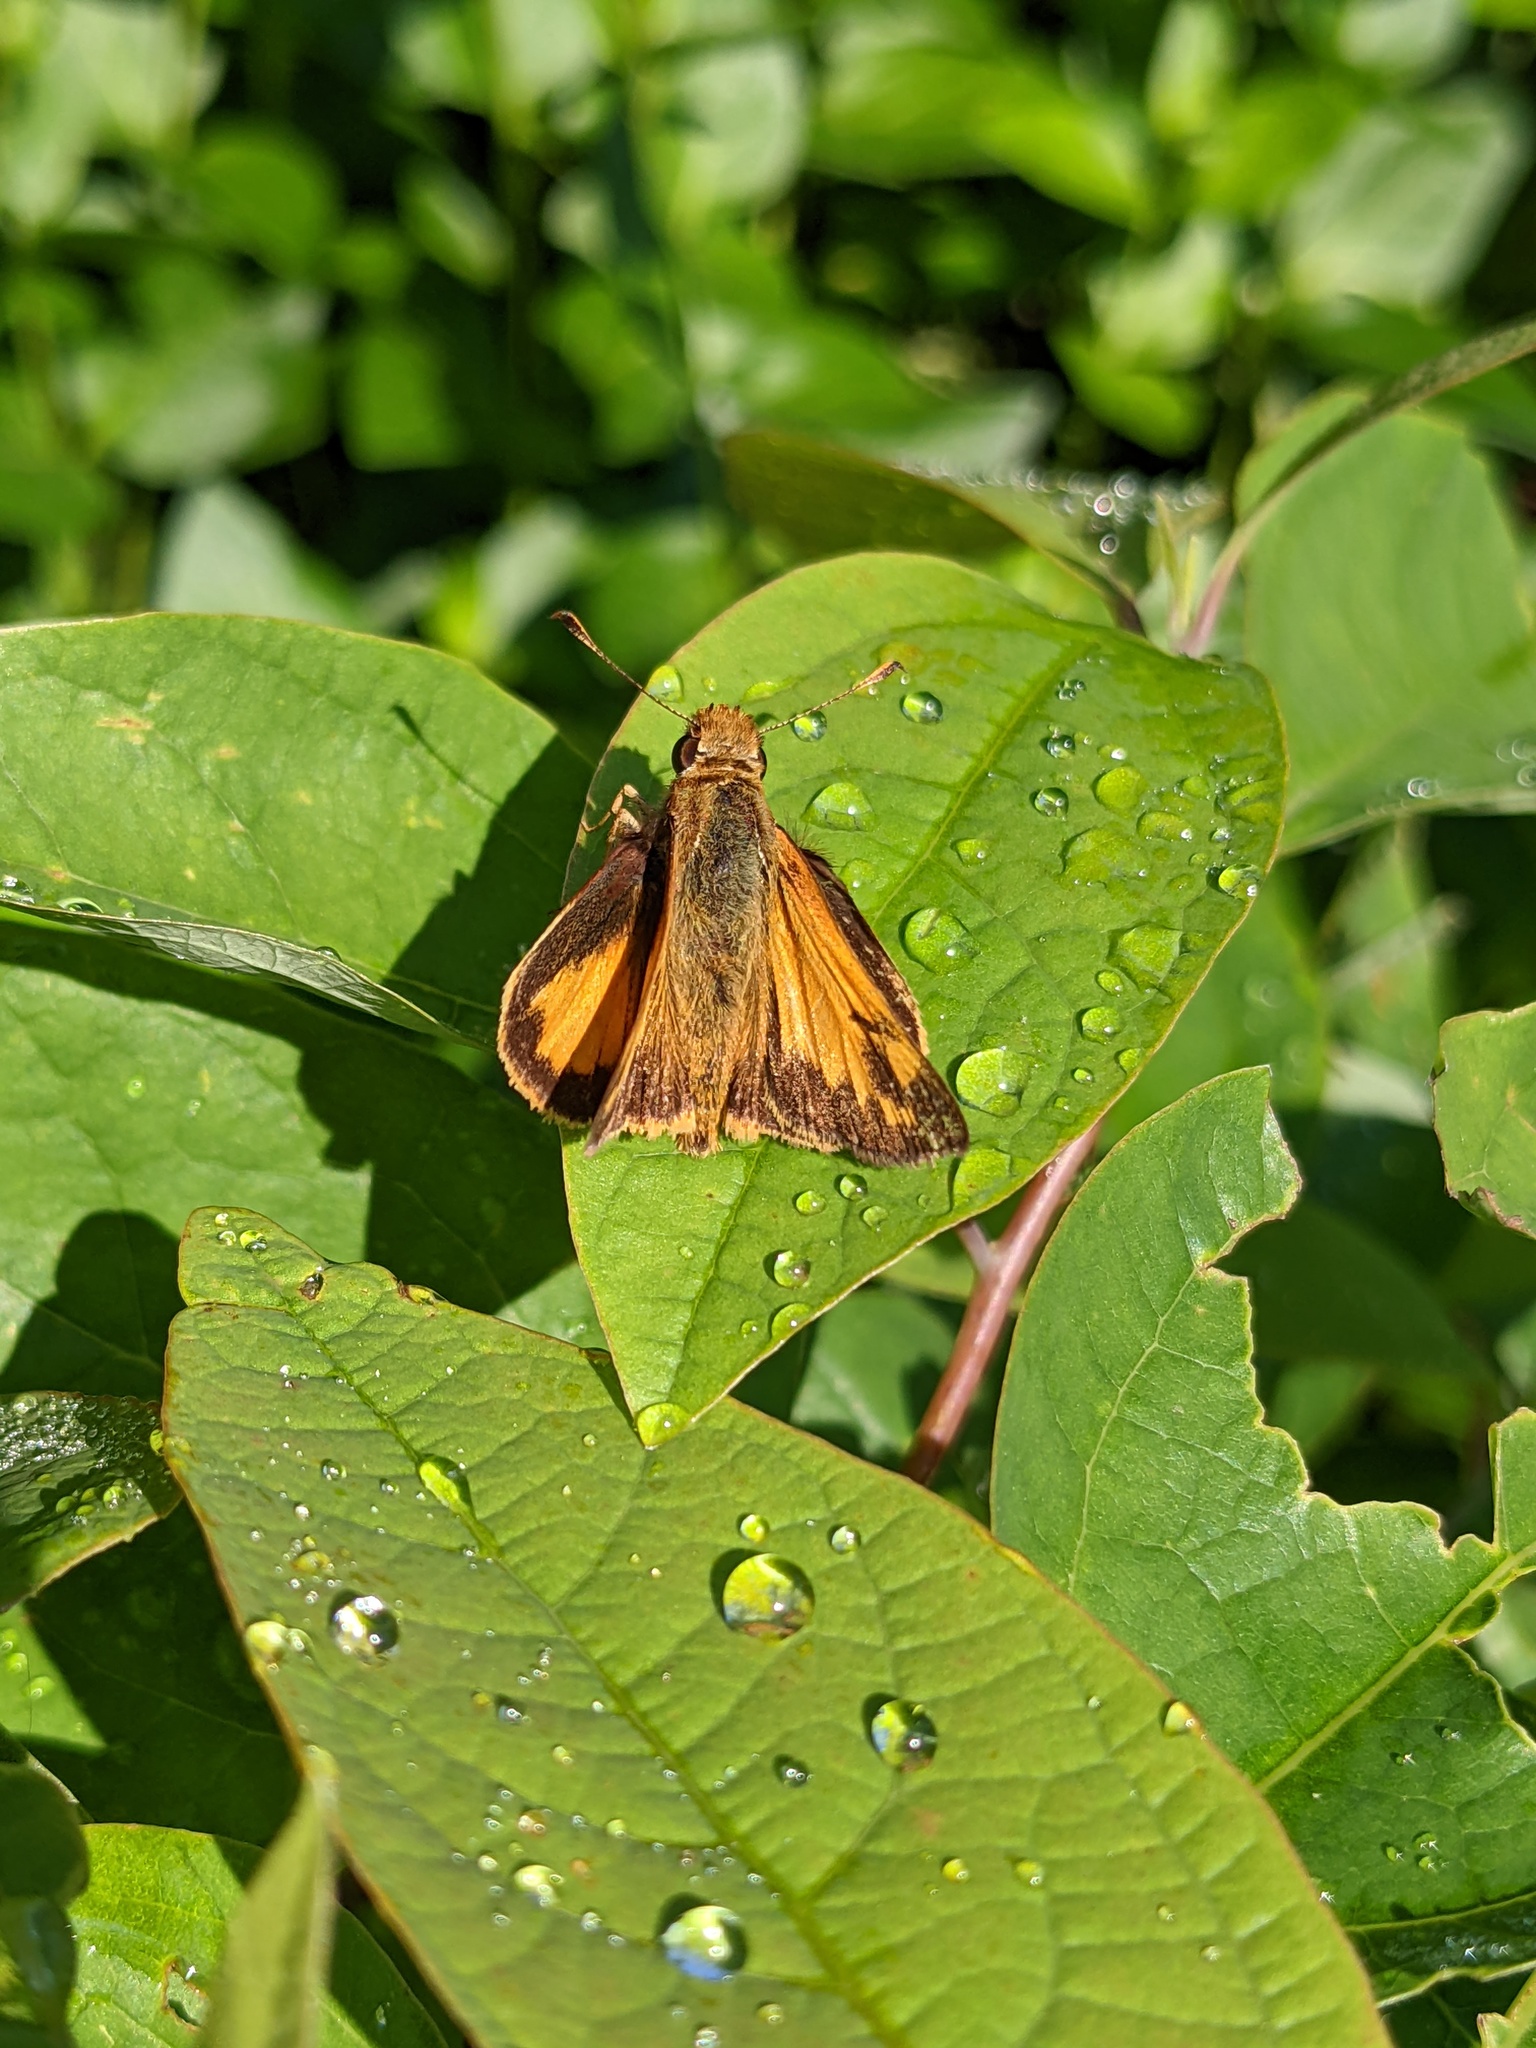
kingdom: Animalia
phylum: Arthropoda
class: Insecta
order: Lepidoptera
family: Hesperiidae
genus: Lon
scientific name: Lon zabulon
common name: Zabulon skipper
